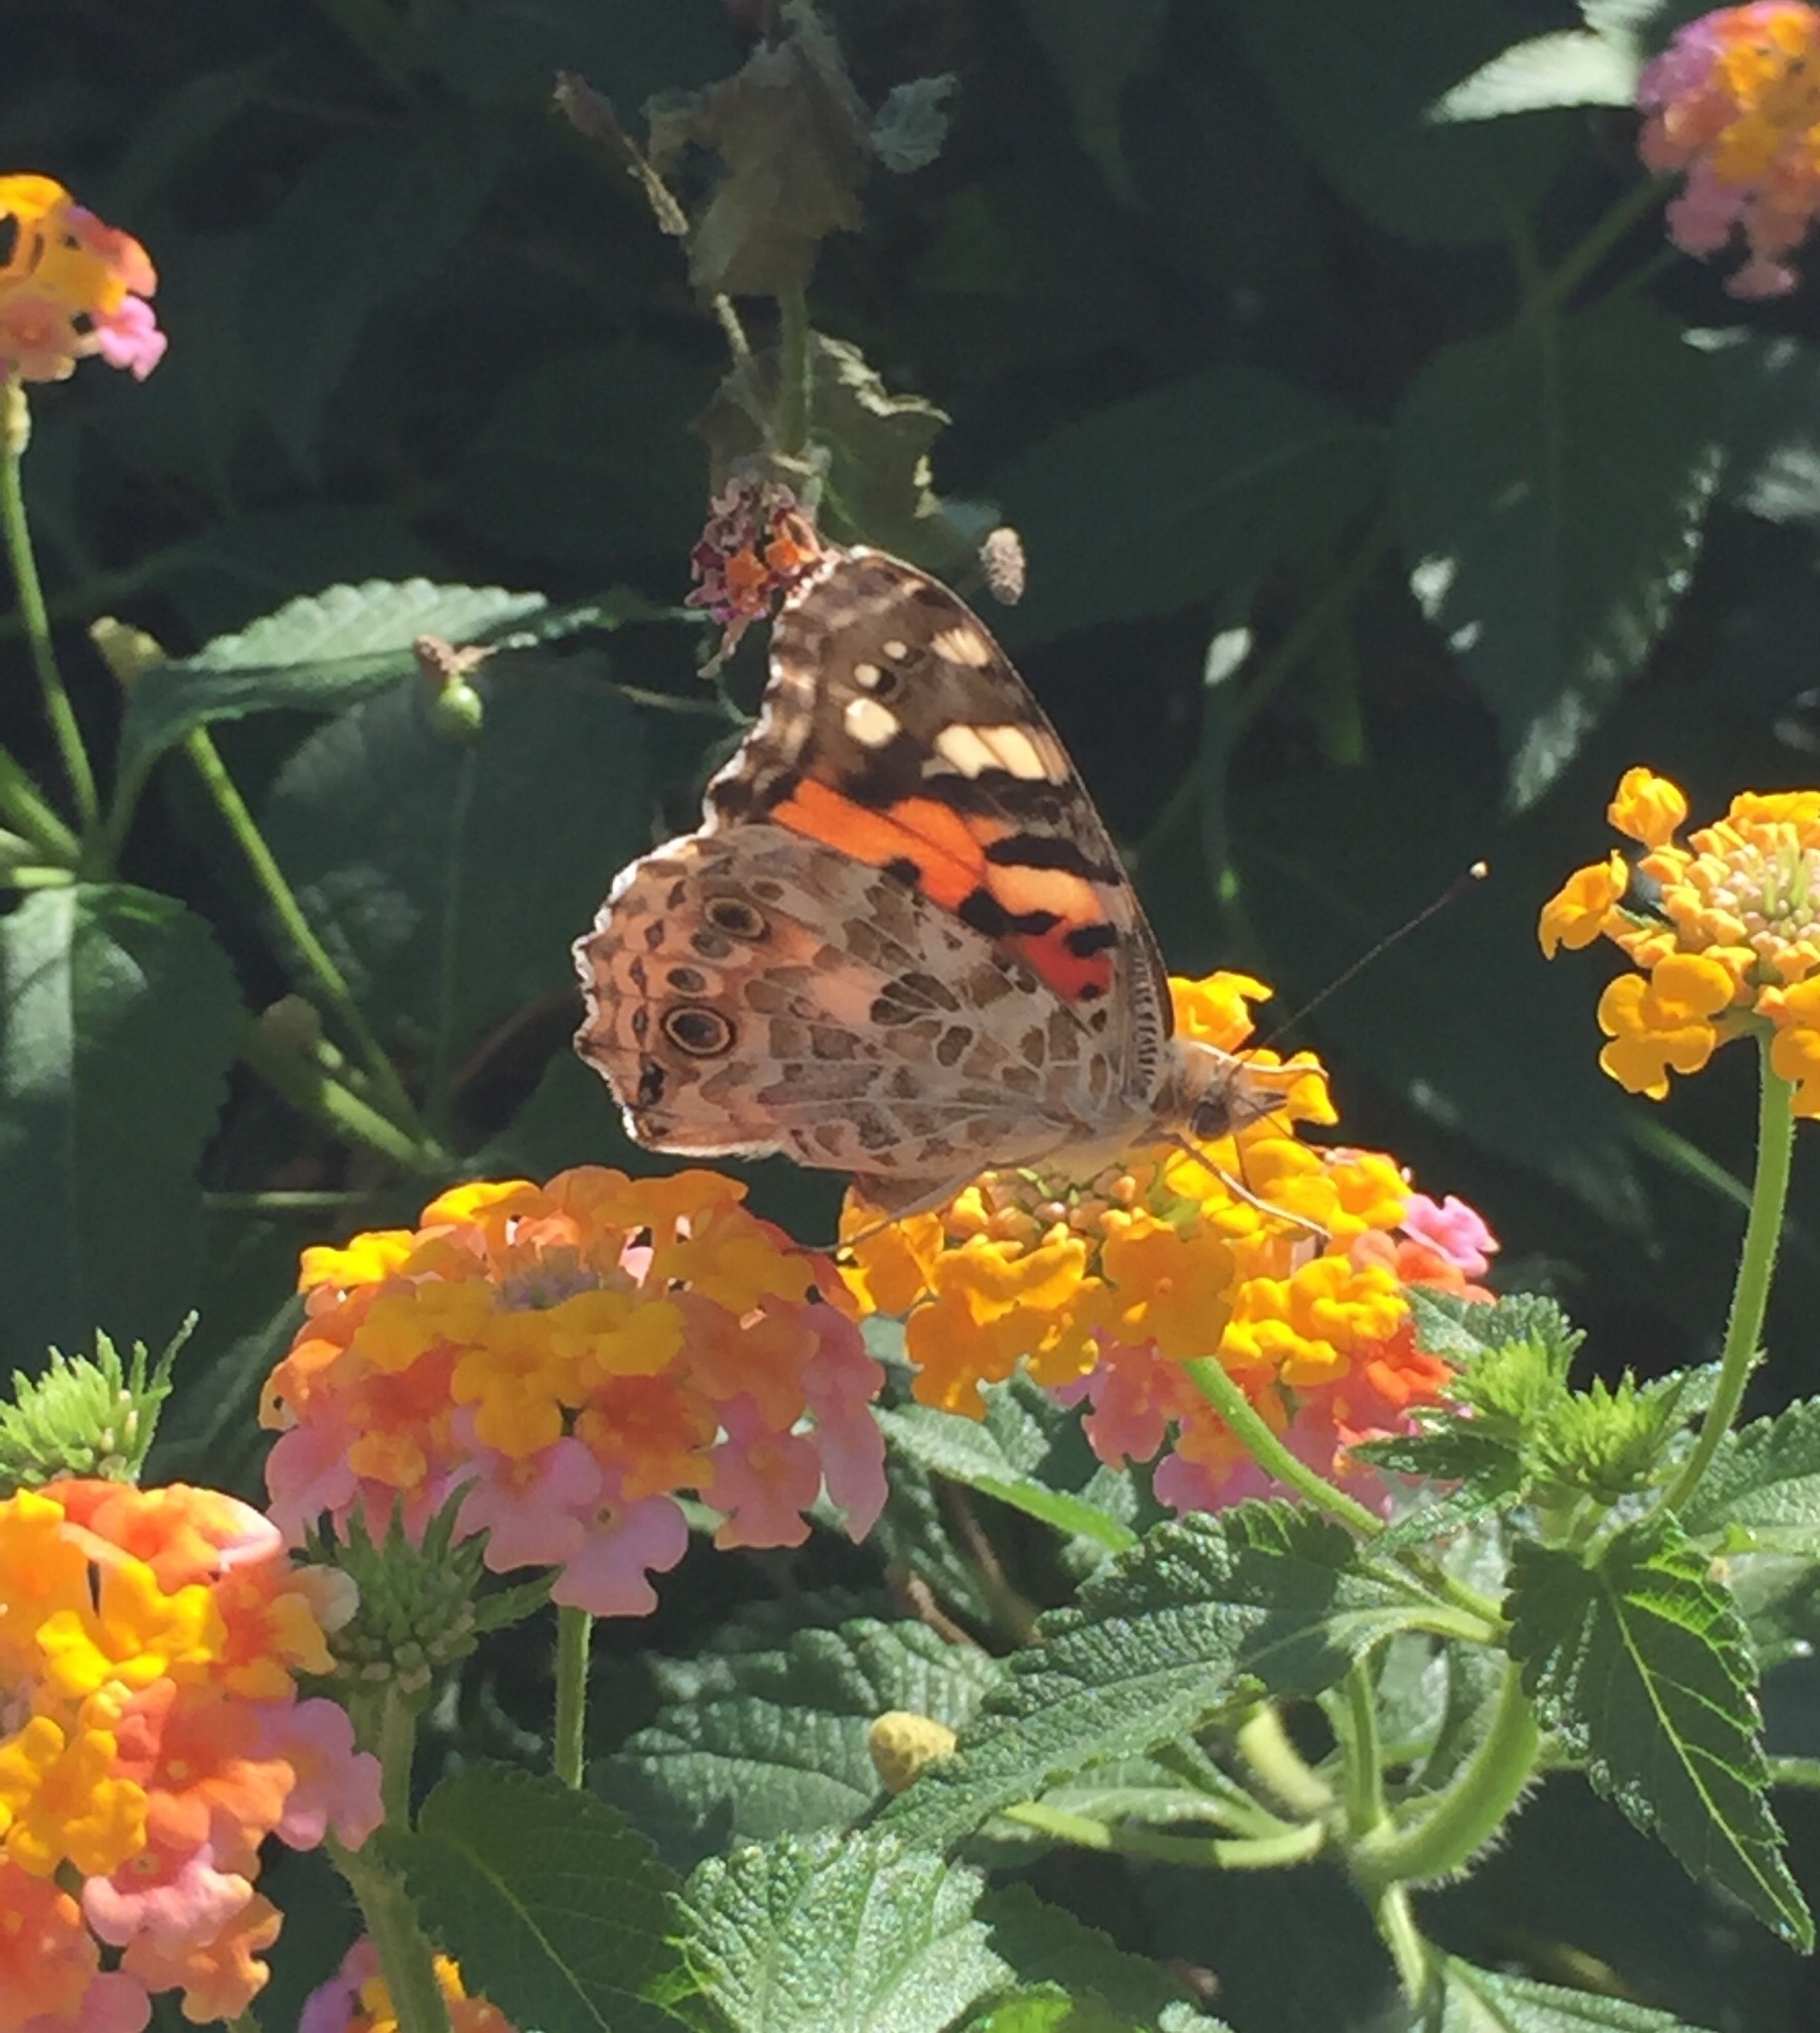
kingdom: Animalia
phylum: Arthropoda
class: Insecta
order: Lepidoptera
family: Nymphalidae
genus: Vanessa
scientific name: Vanessa cardui
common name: Painted lady
